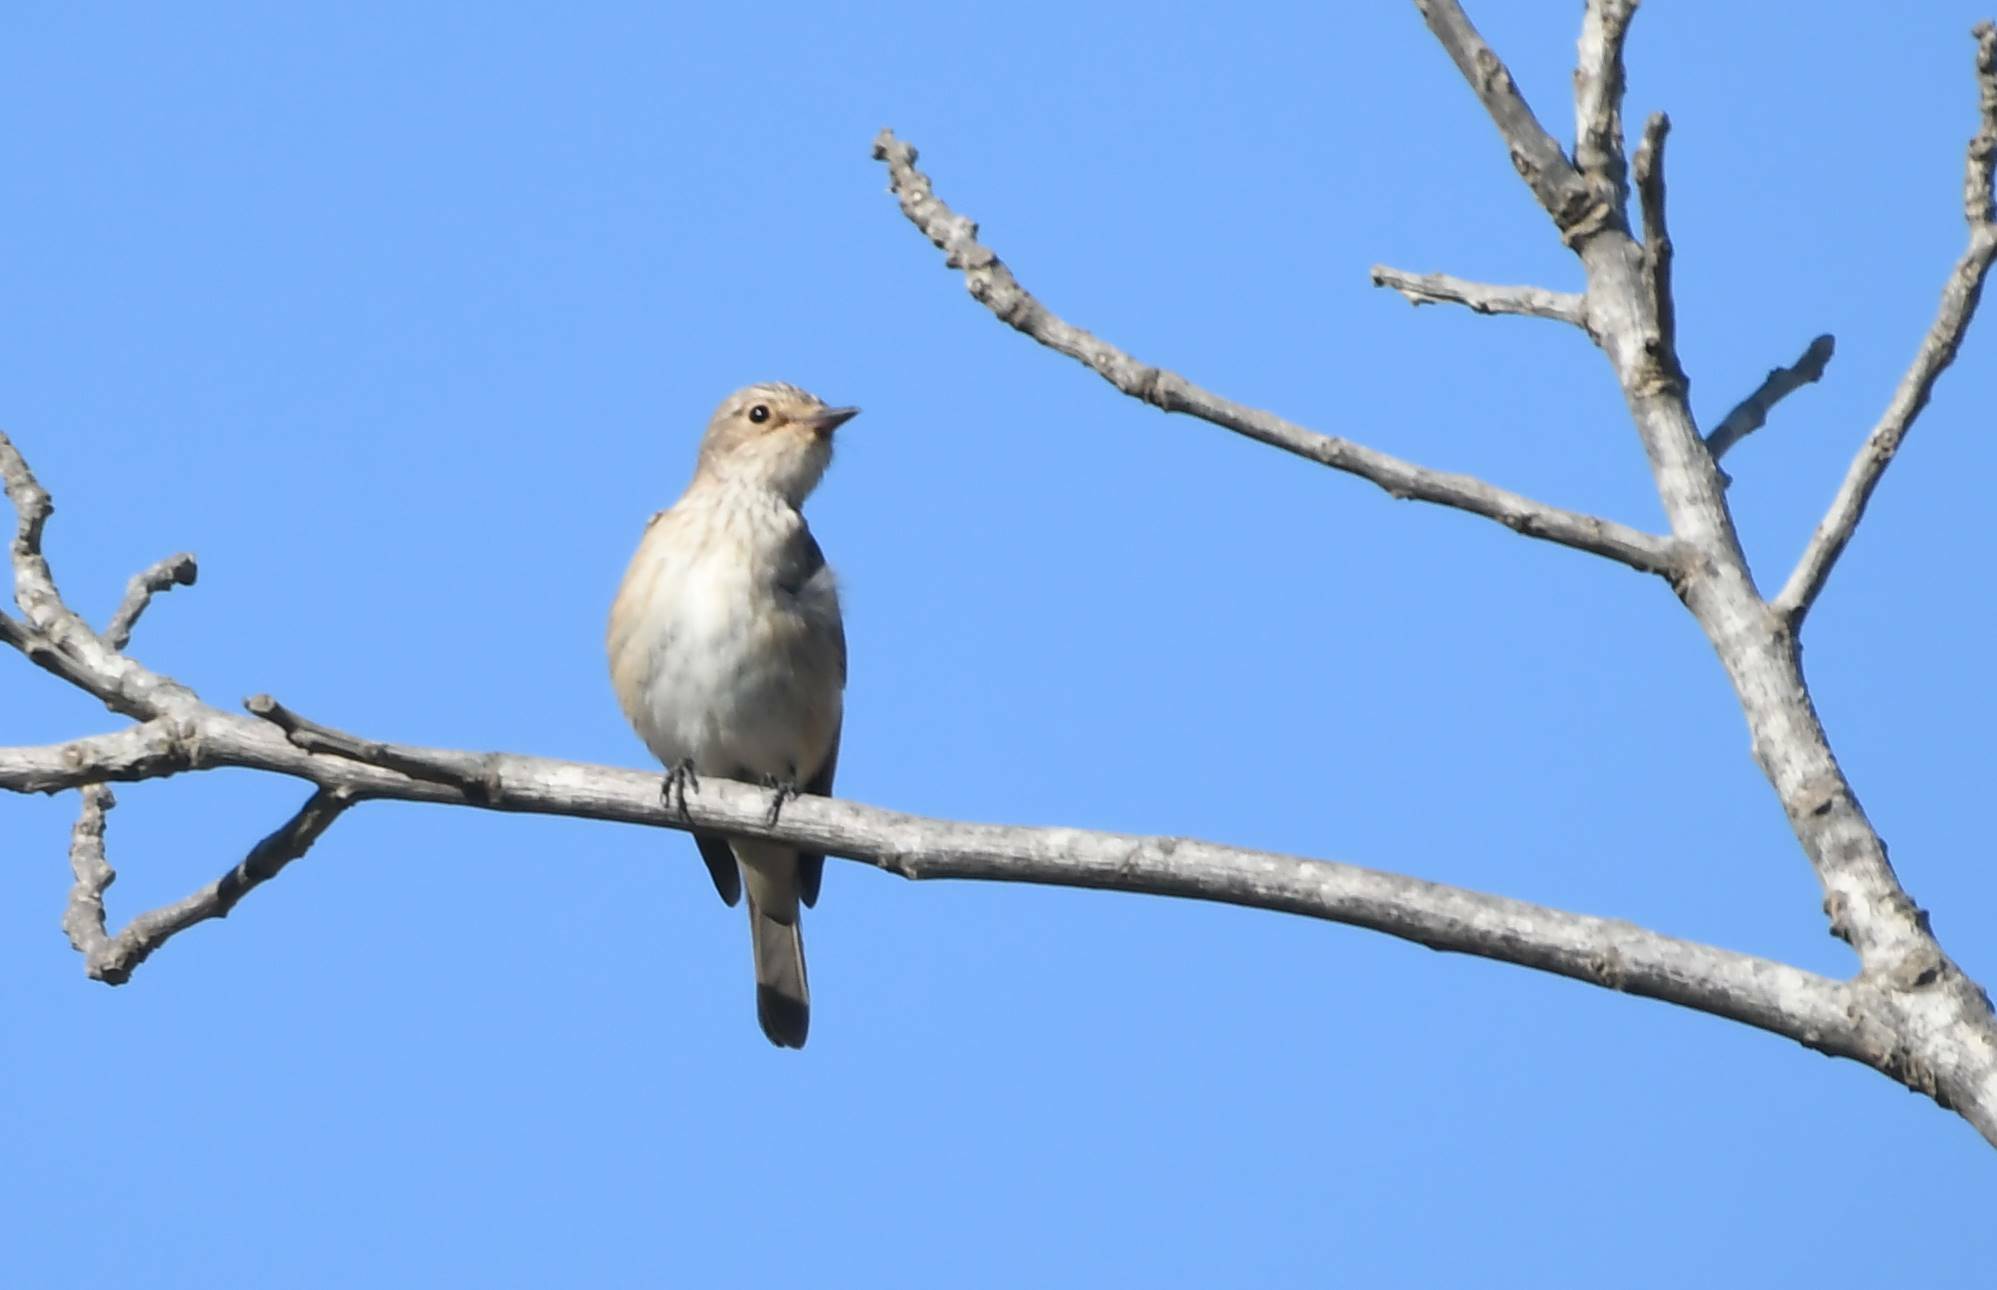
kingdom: Animalia
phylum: Chordata
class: Aves
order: Passeriformes
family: Muscicapidae
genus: Muscicapa
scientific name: Muscicapa striata
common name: Spotted flycatcher
